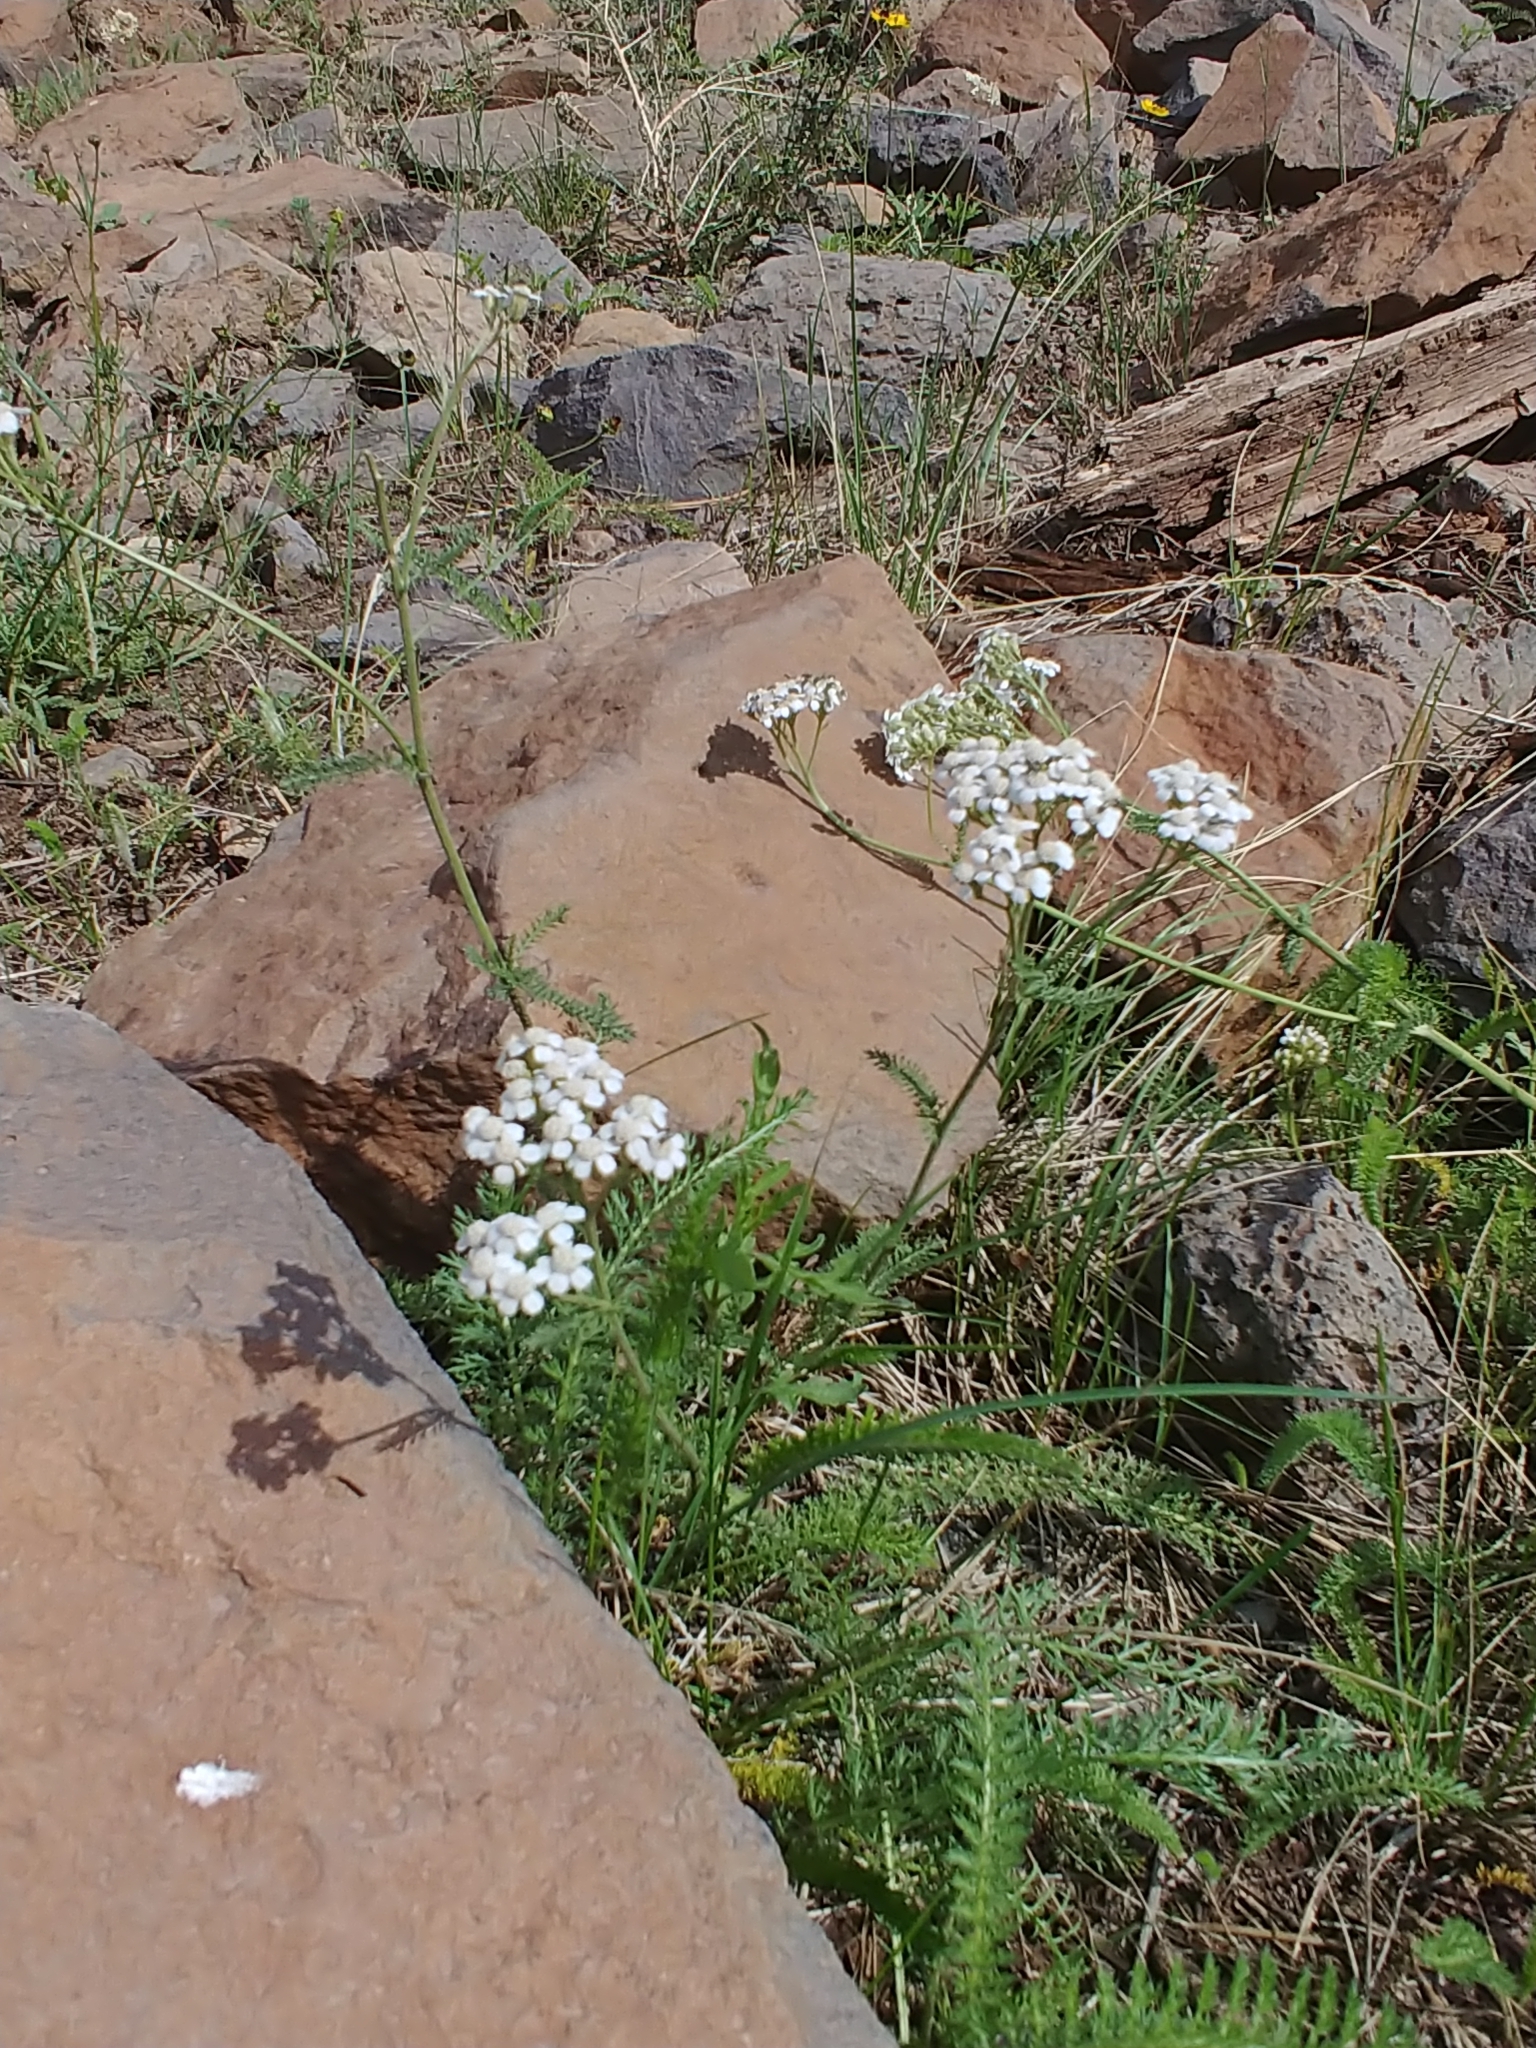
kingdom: Plantae
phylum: Tracheophyta
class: Magnoliopsida
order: Asterales
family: Asteraceae
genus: Achillea
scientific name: Achillea millefolium
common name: Yarrow
